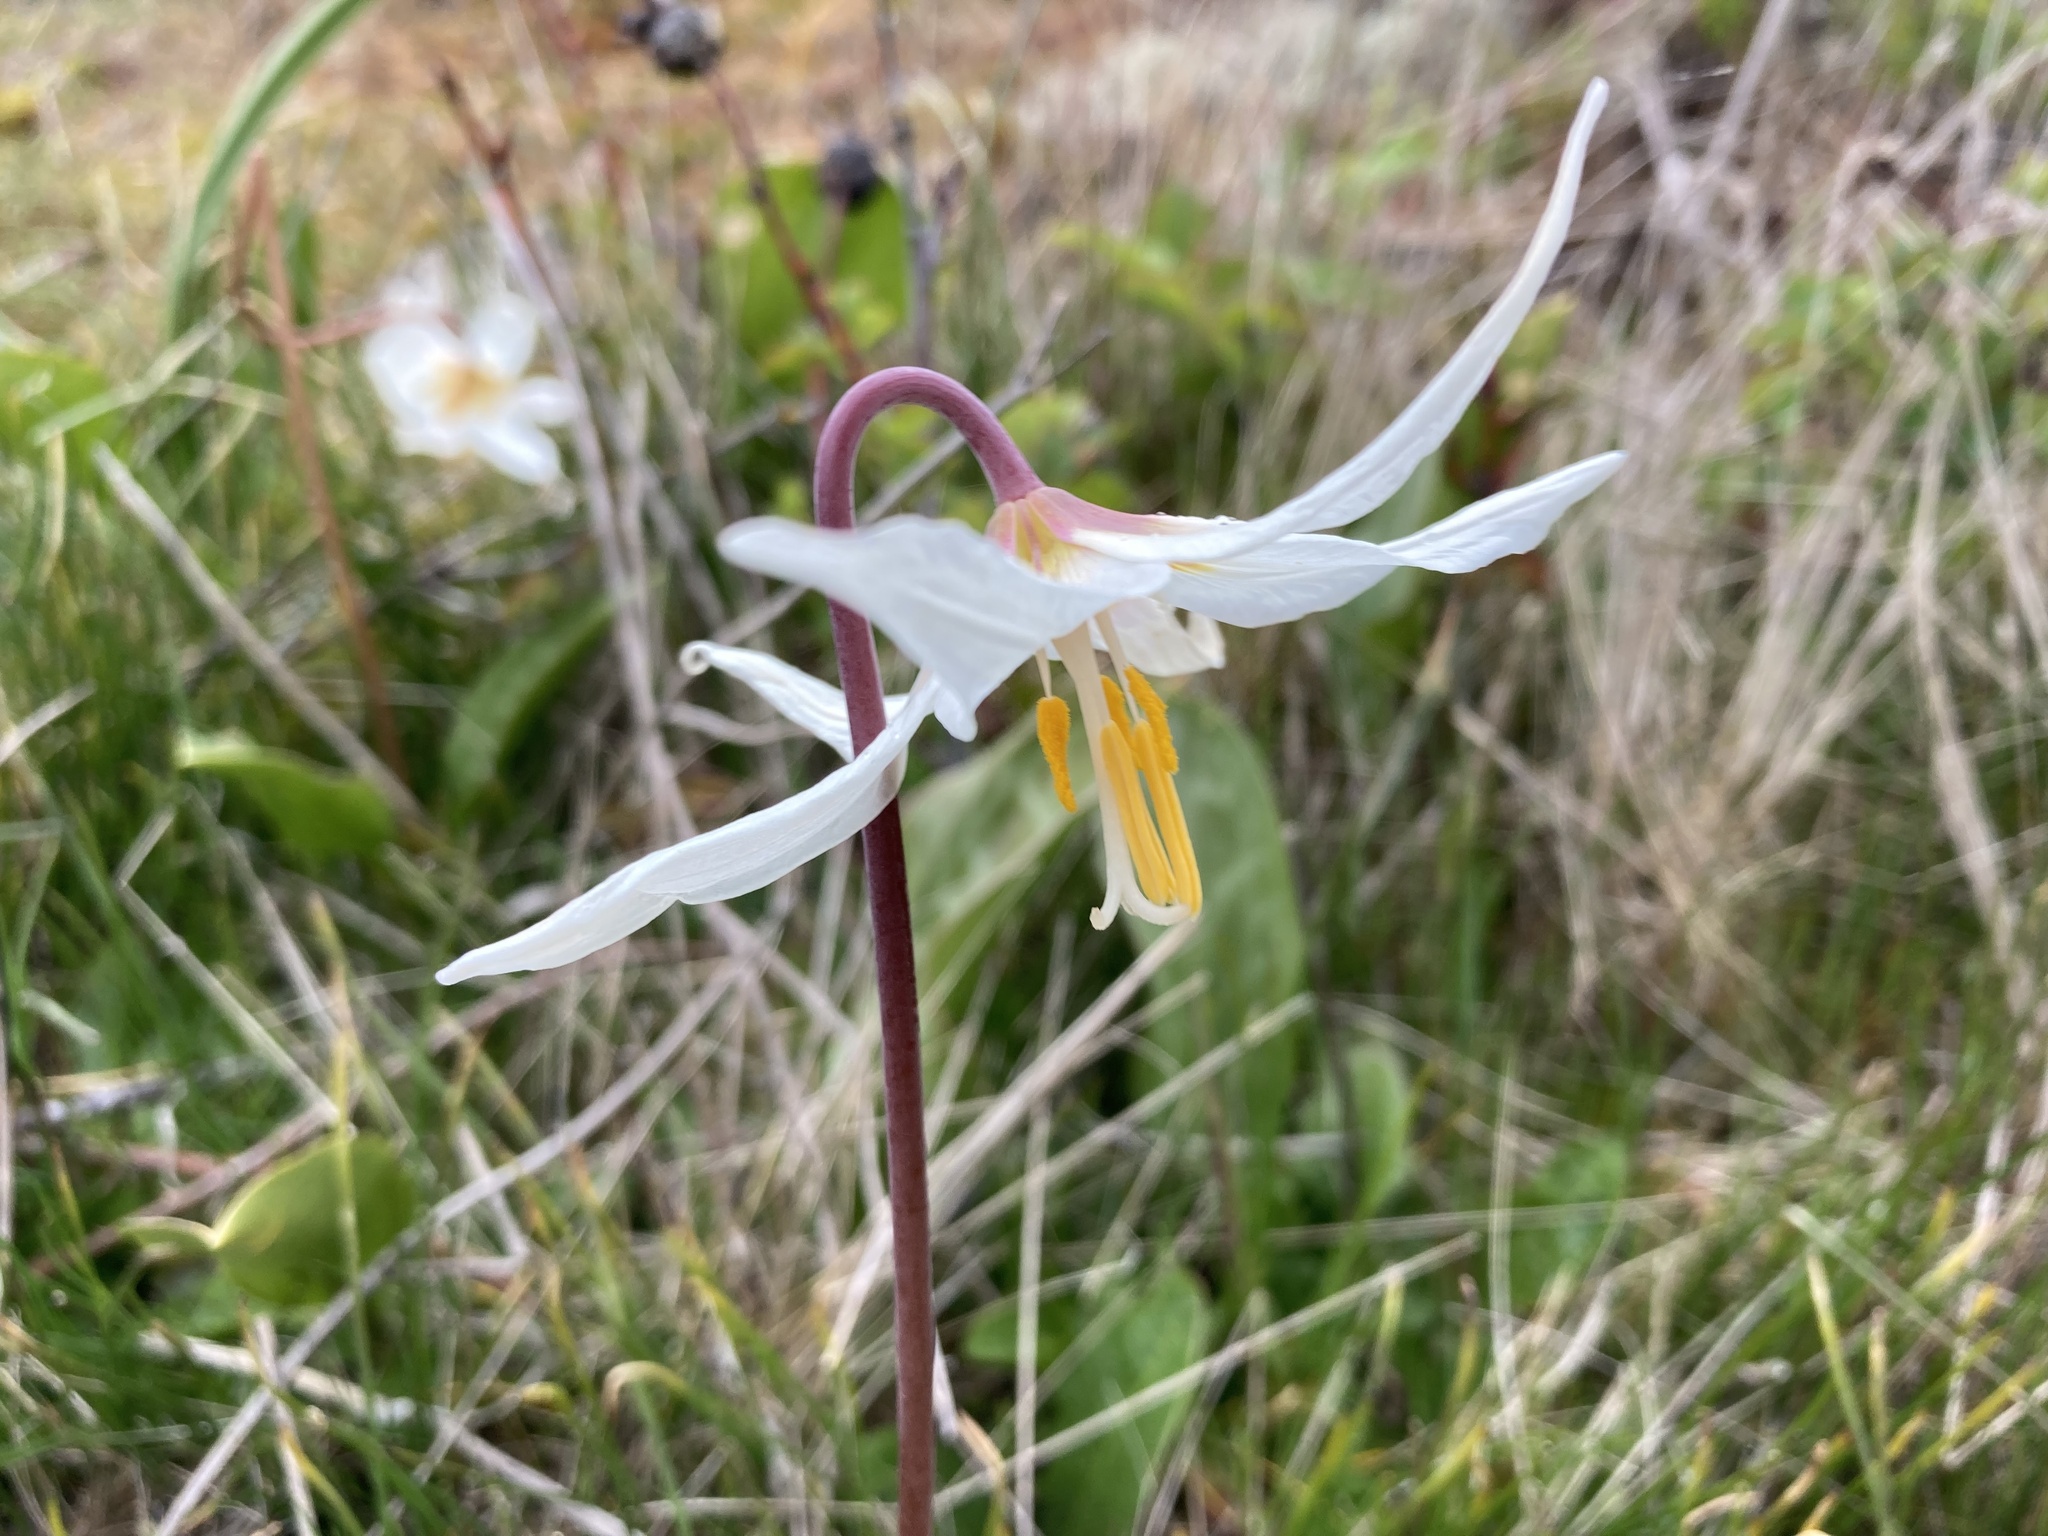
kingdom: Plantae
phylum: Tracheophyta
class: Liliopsida
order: Liliales
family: Liliaceae
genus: Erythronium
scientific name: Erythronium oregonum
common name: Giant adder's-tongue
